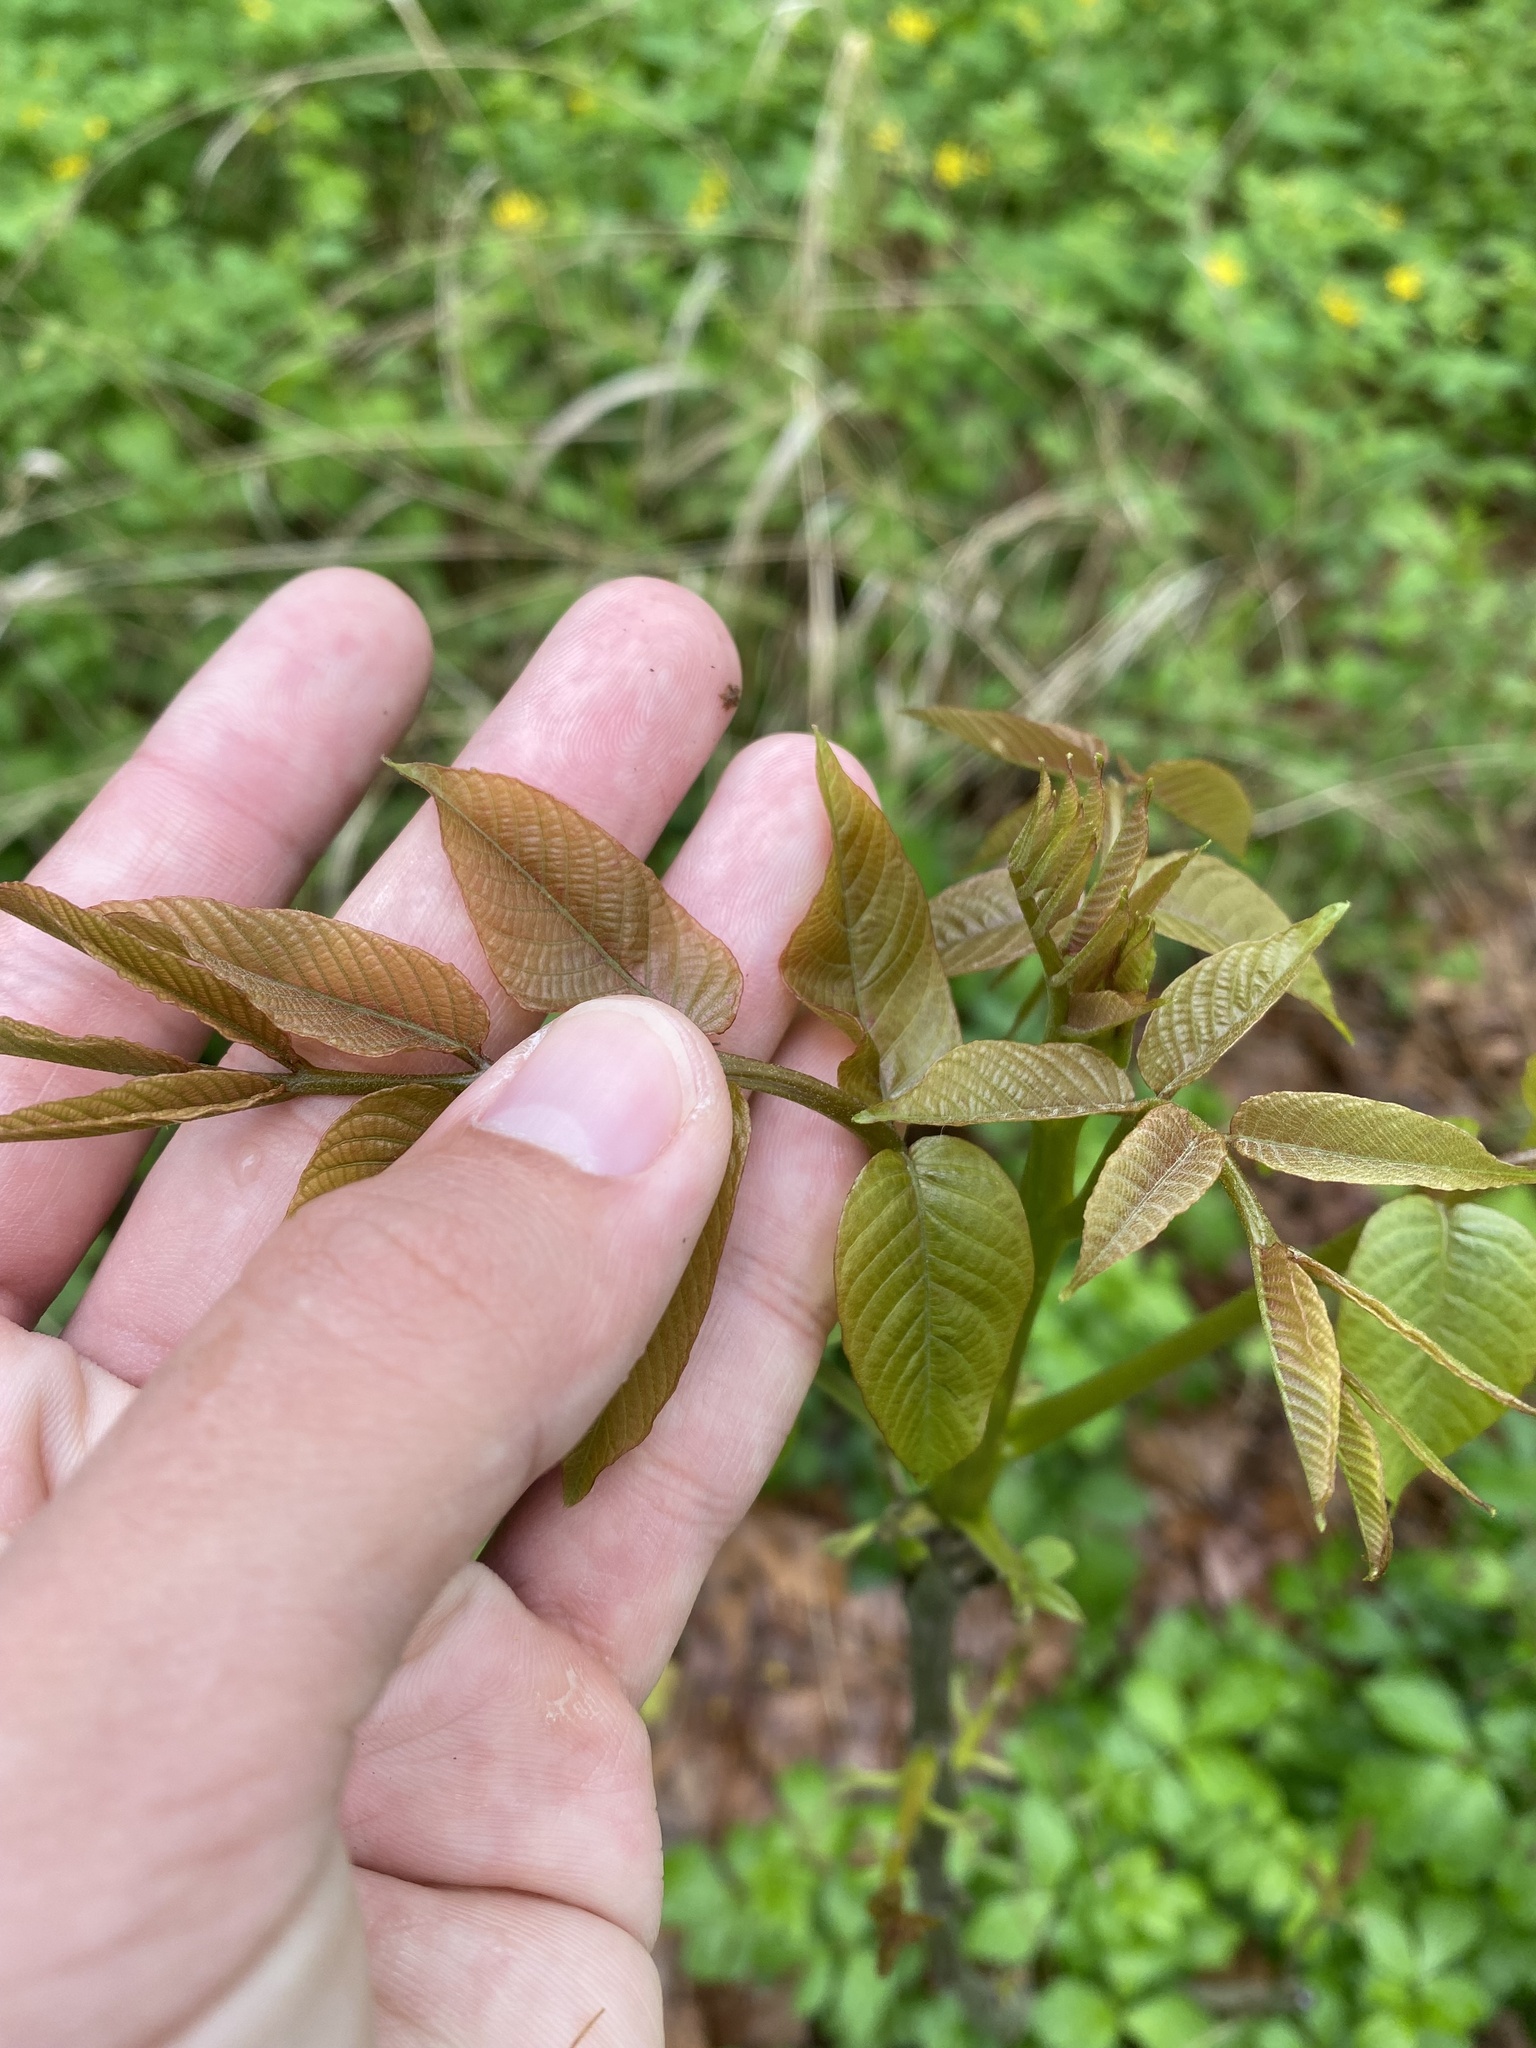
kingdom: Plantae
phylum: Tracheophyta
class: Magnoliopsida
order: Fagales
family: Juglandaceae
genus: Juglans
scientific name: Juglans regia
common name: Walnut
